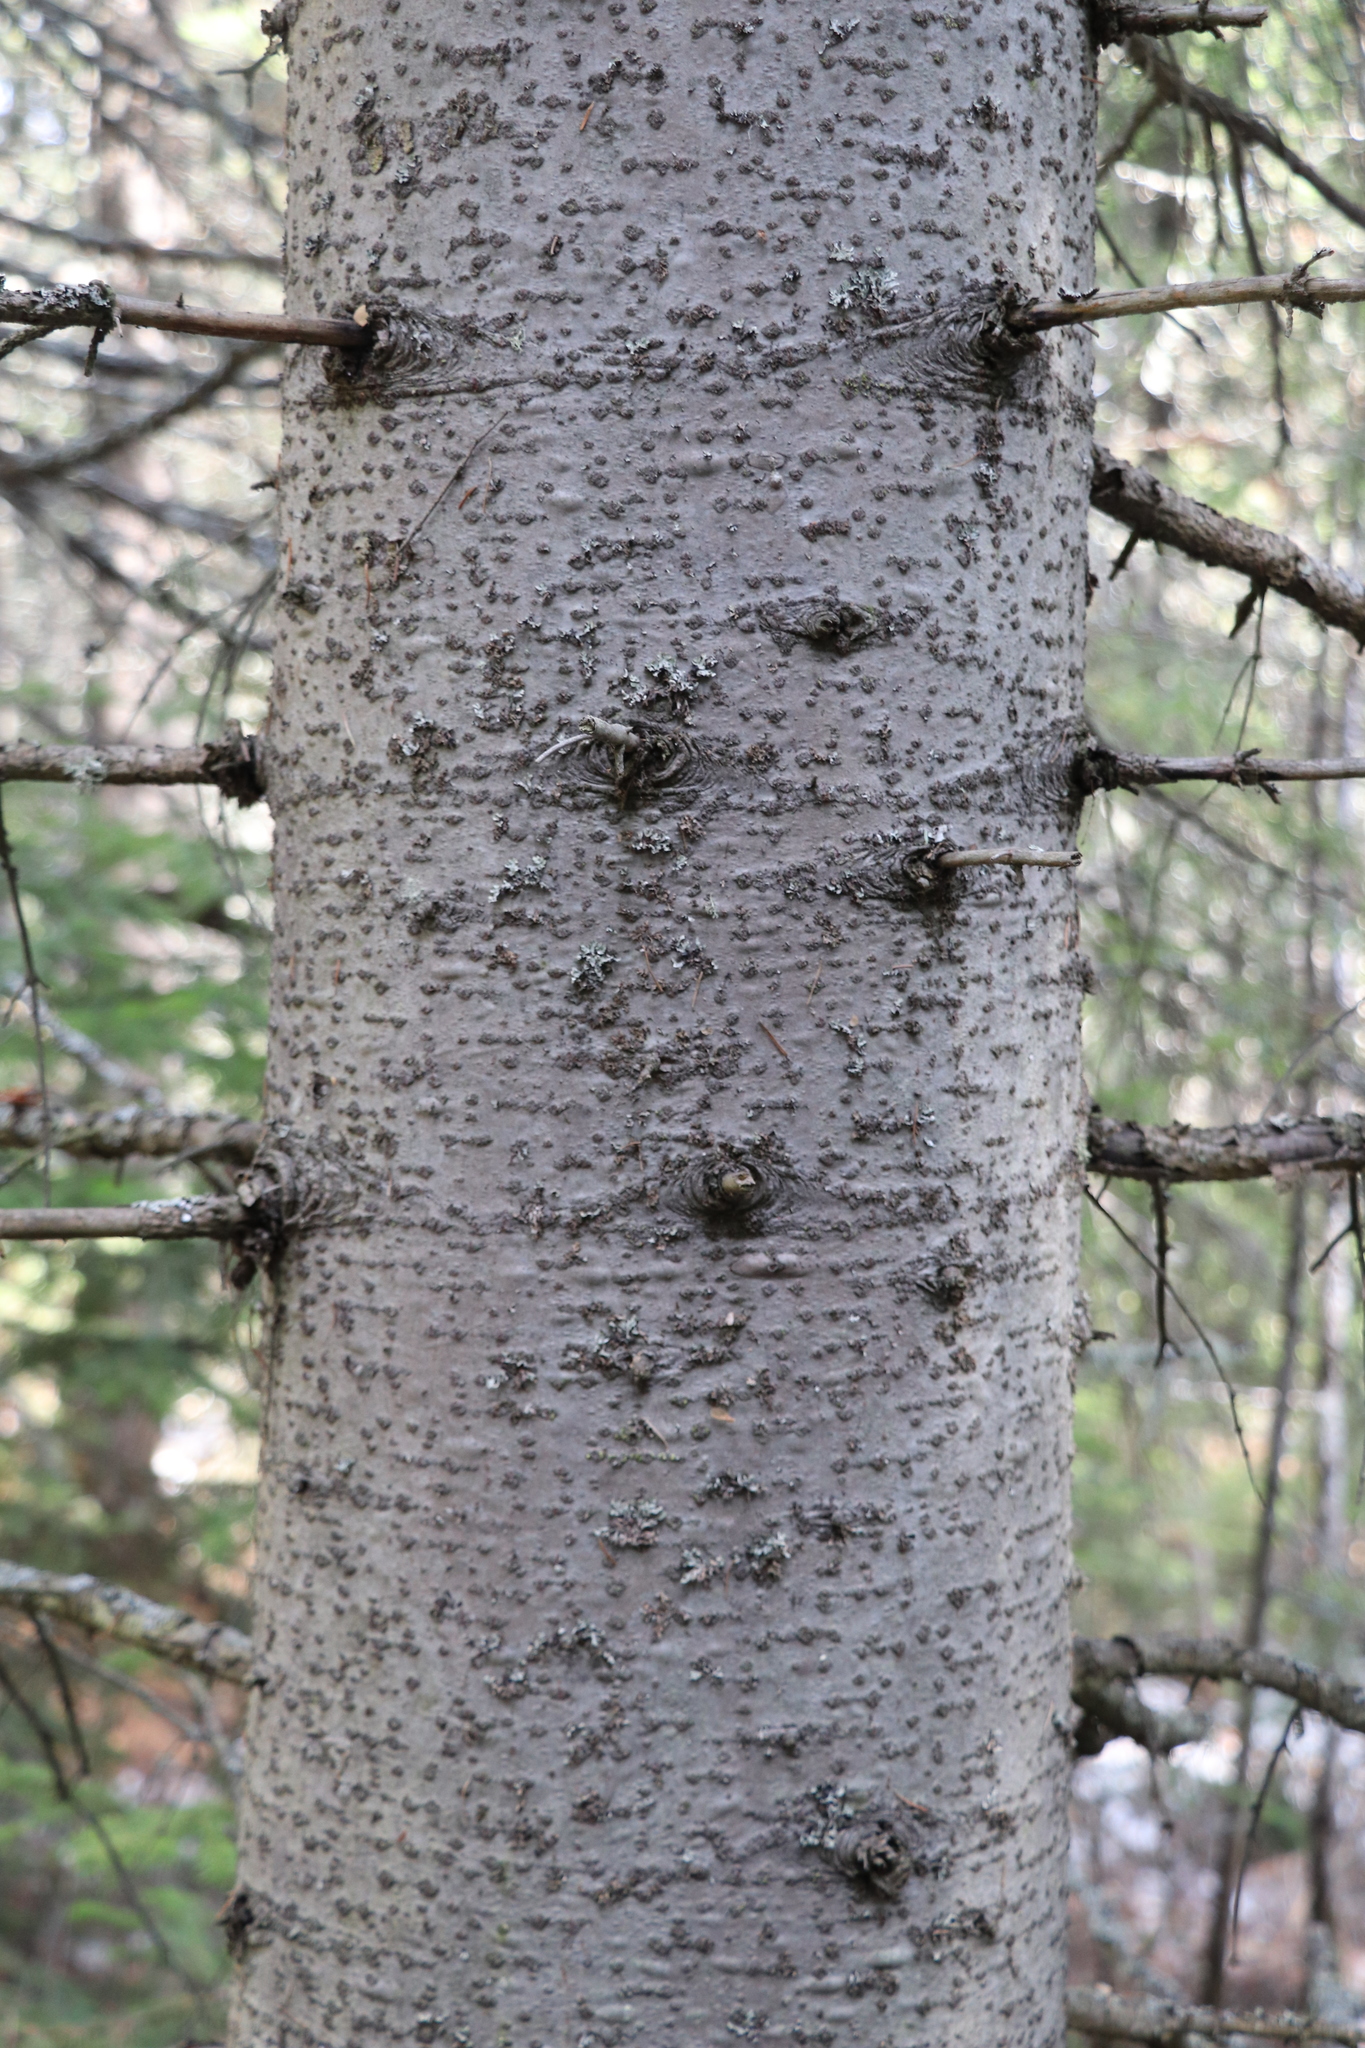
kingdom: Plantae
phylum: Tracheophyta
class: Pinopsida
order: Pinales
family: Pinaceae
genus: Abies
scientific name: Abies sibirica
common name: Siberian fir
